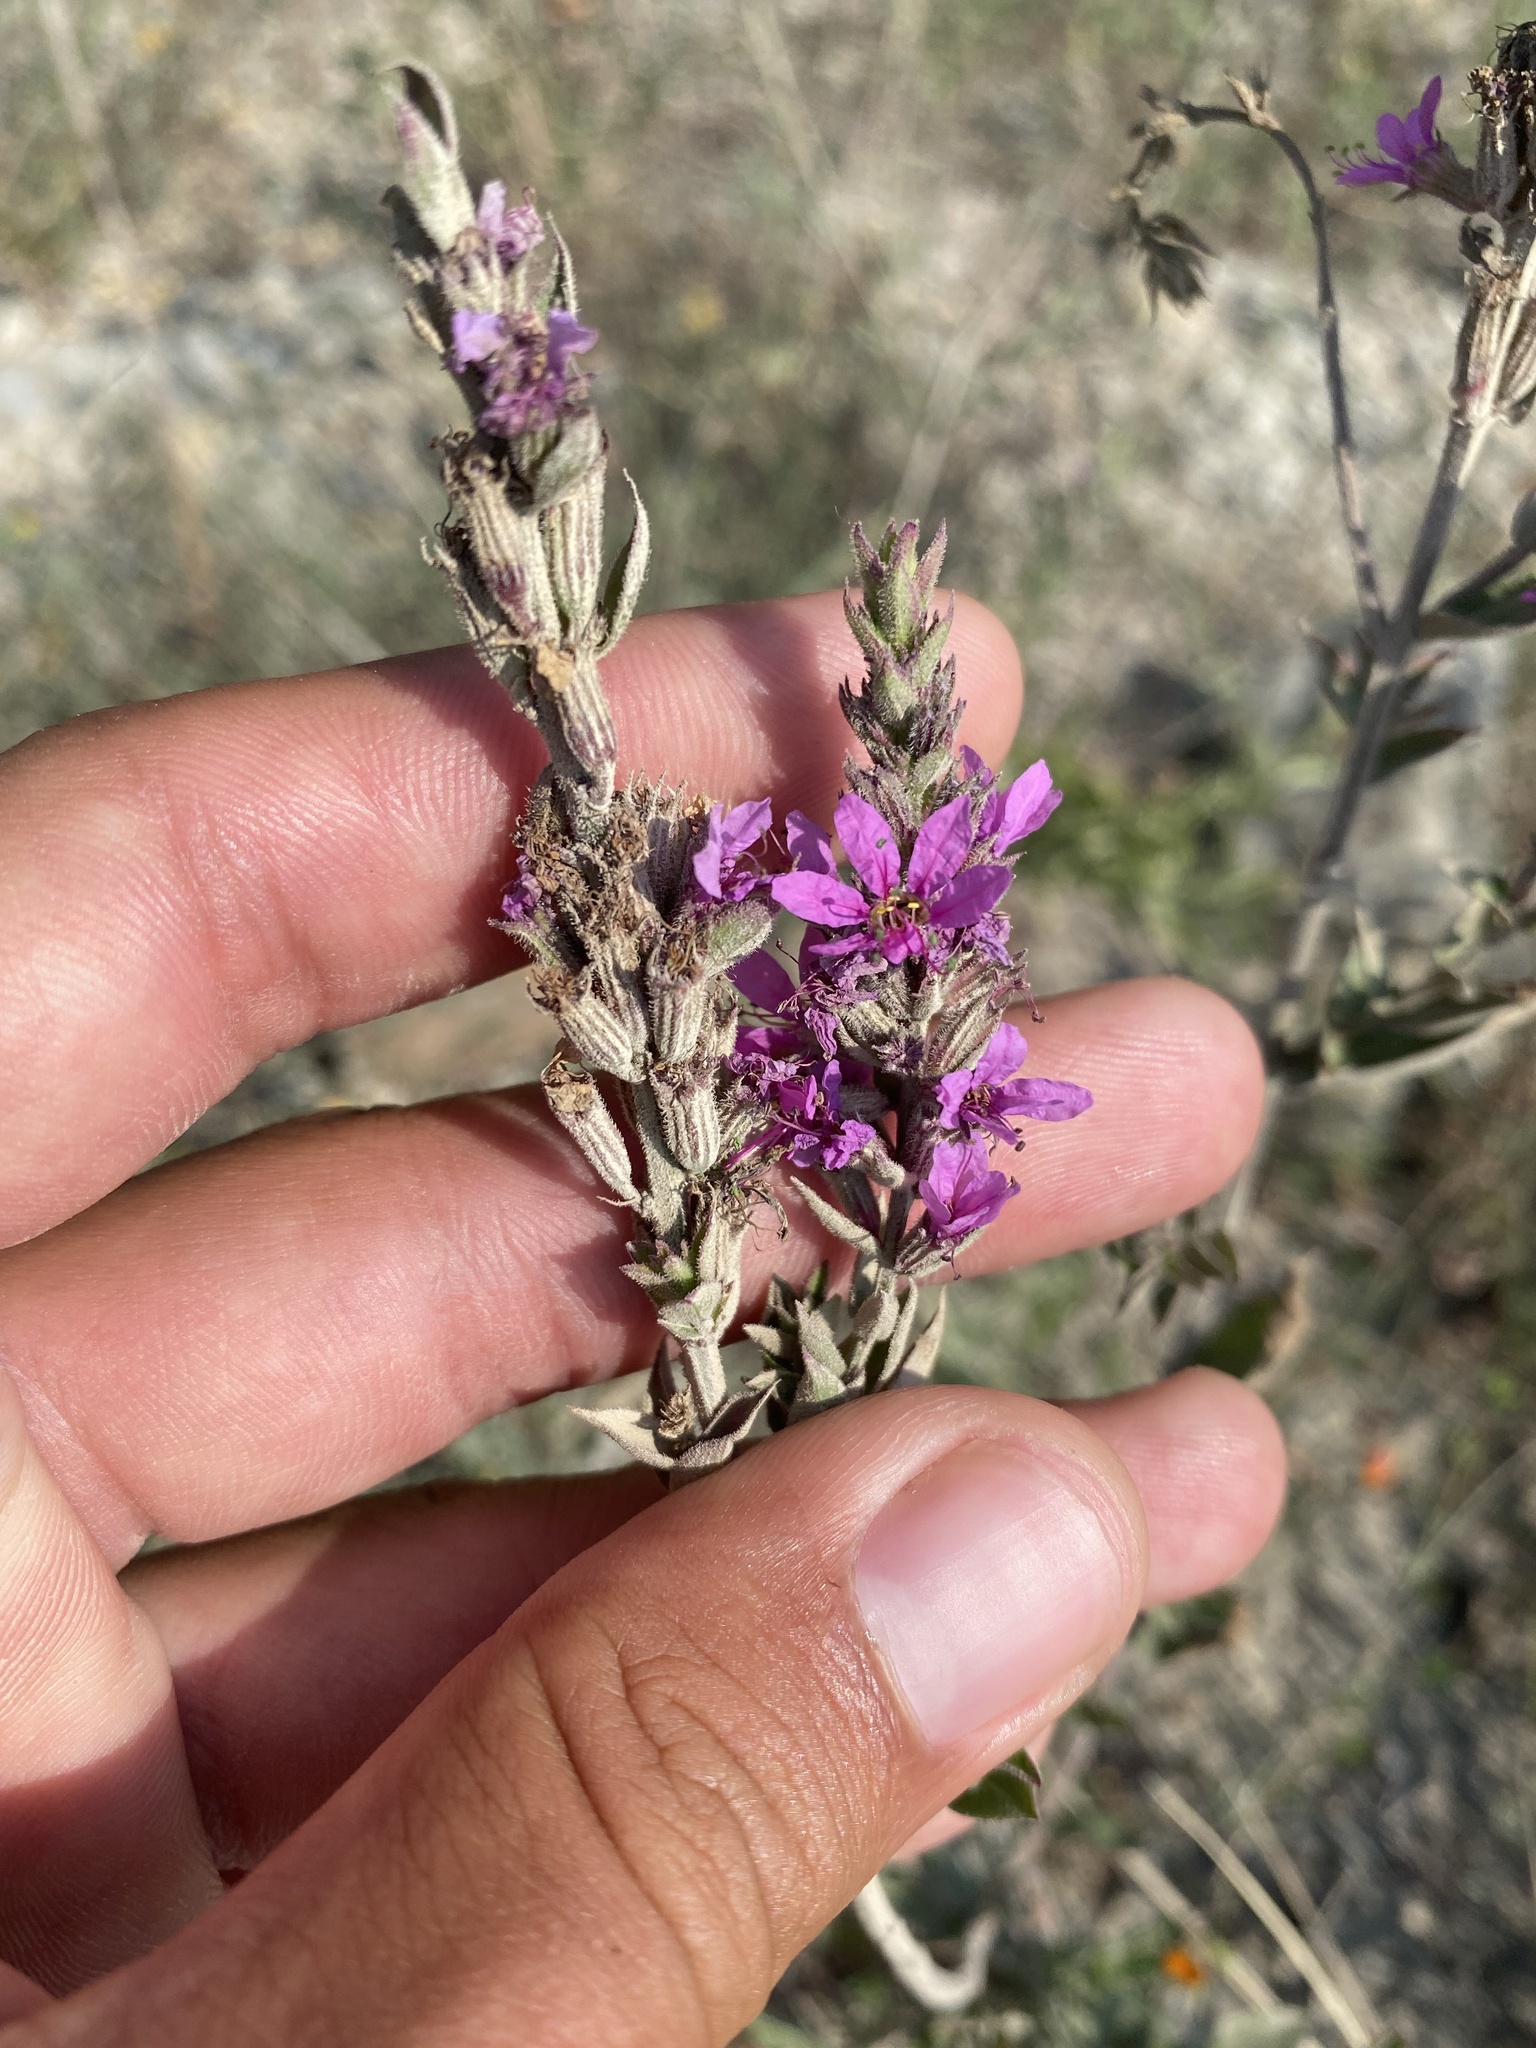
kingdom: Plantae
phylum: Tracheophyta
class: Magnoliopsida
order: Myrtales
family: Lythraceae
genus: Lythrum
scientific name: Lythrum salicaria
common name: Purple loosestrife
